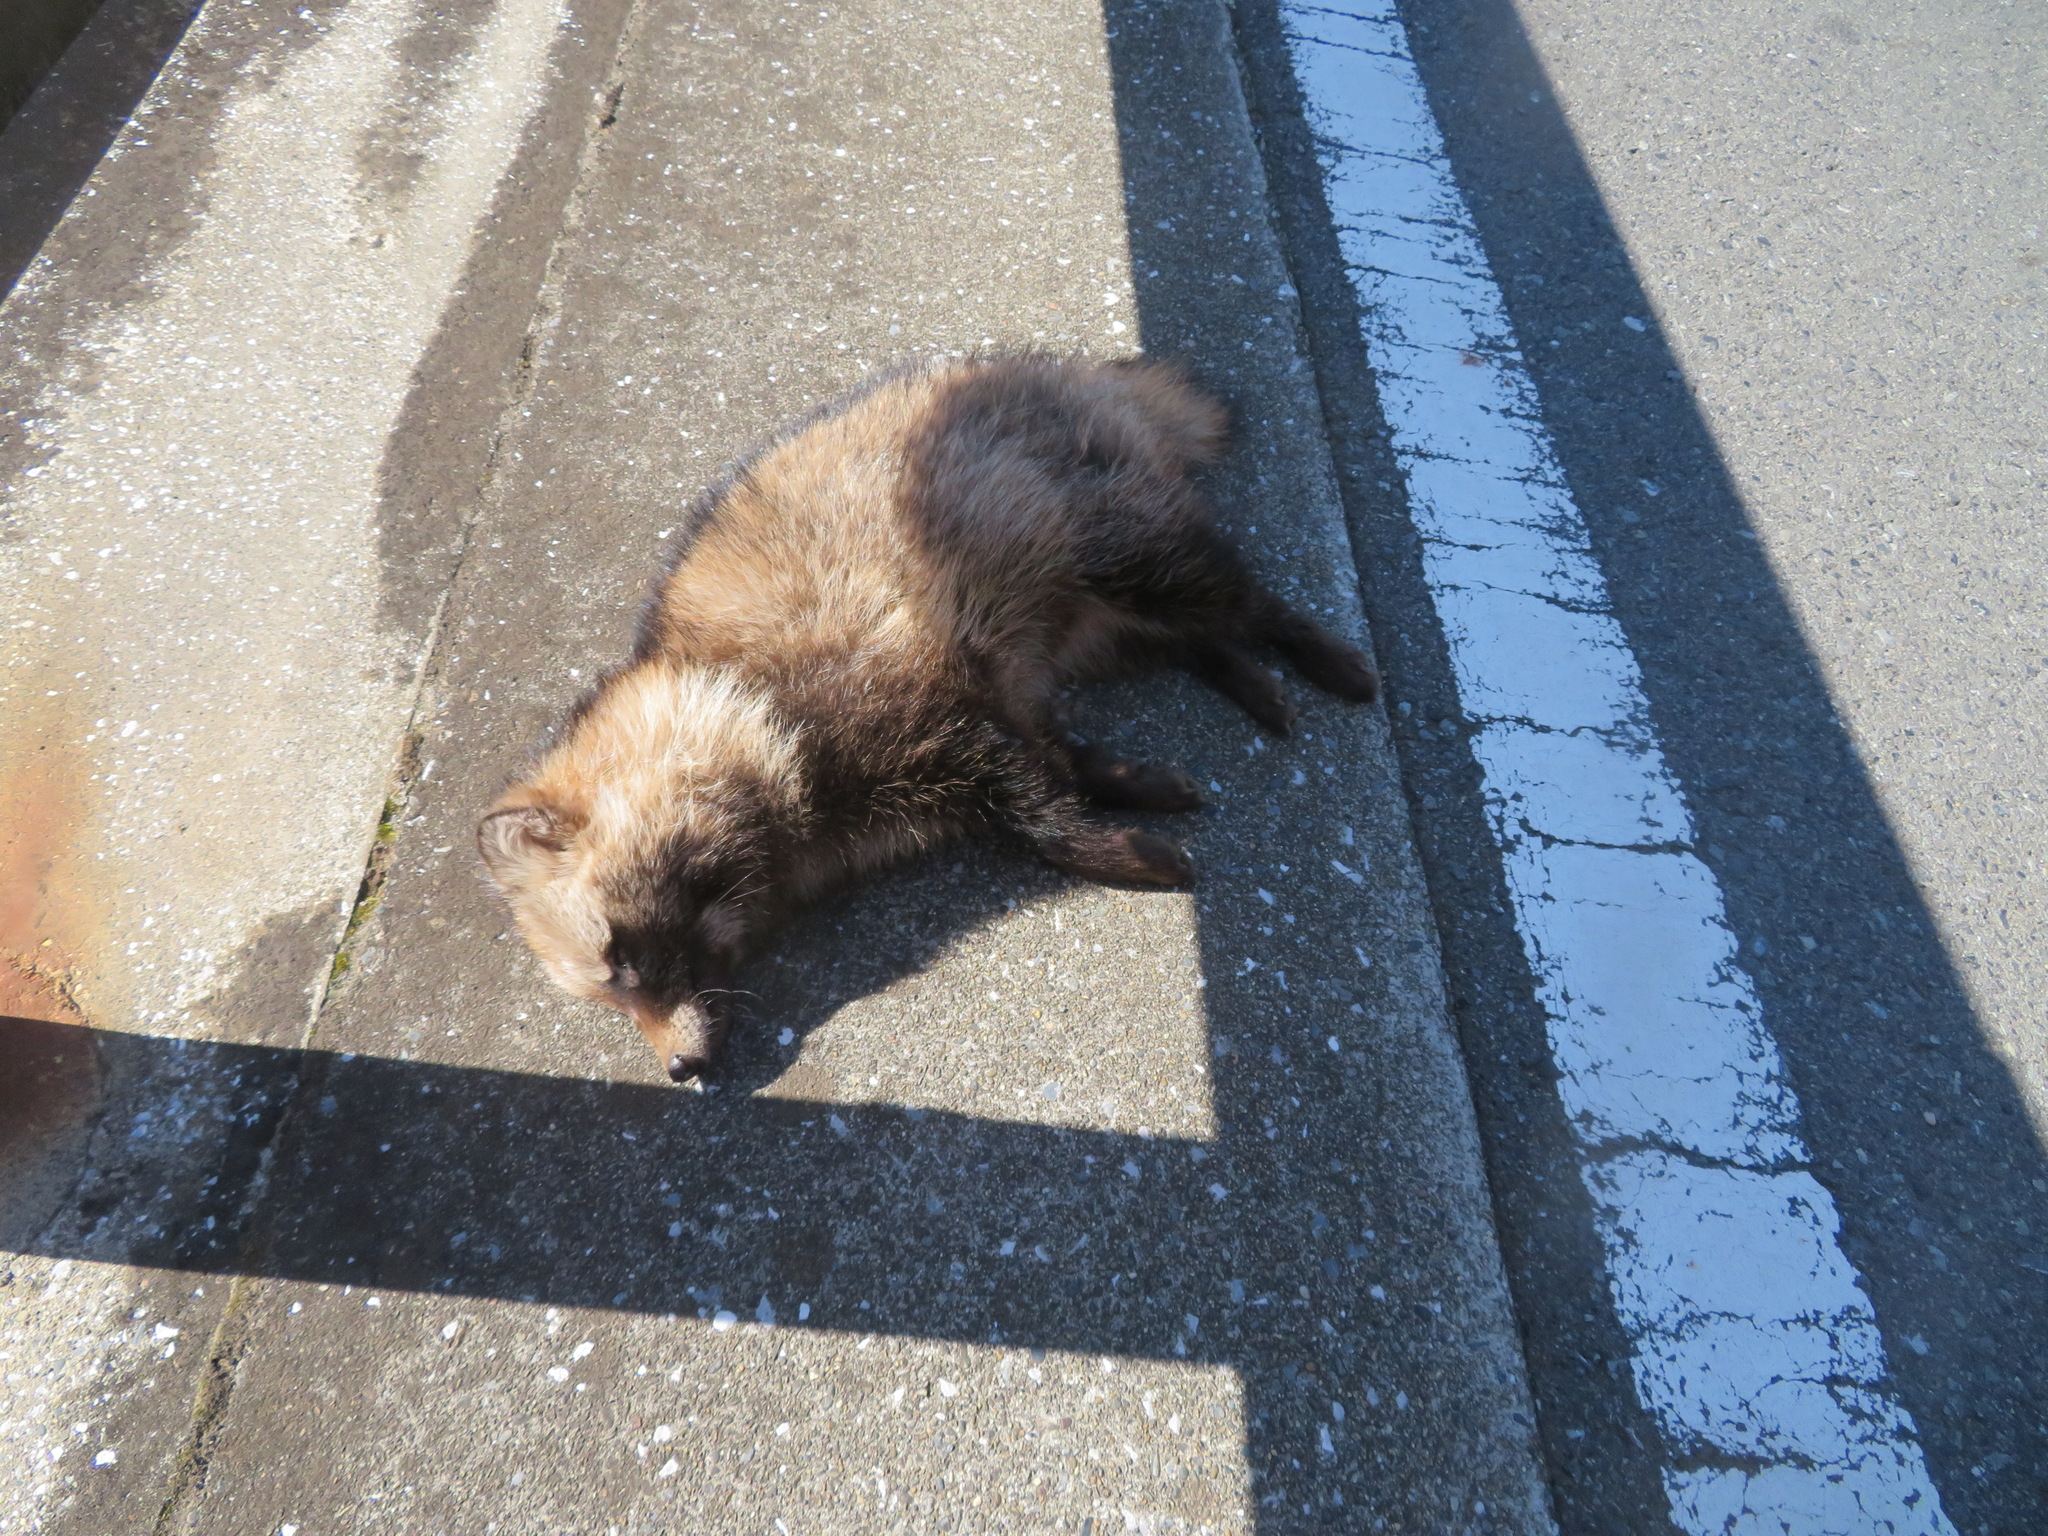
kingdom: Animalia
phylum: Chordata
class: Mammalia
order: Carnivora
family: Canidae
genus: Nyctereutes
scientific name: Nyctereutes
